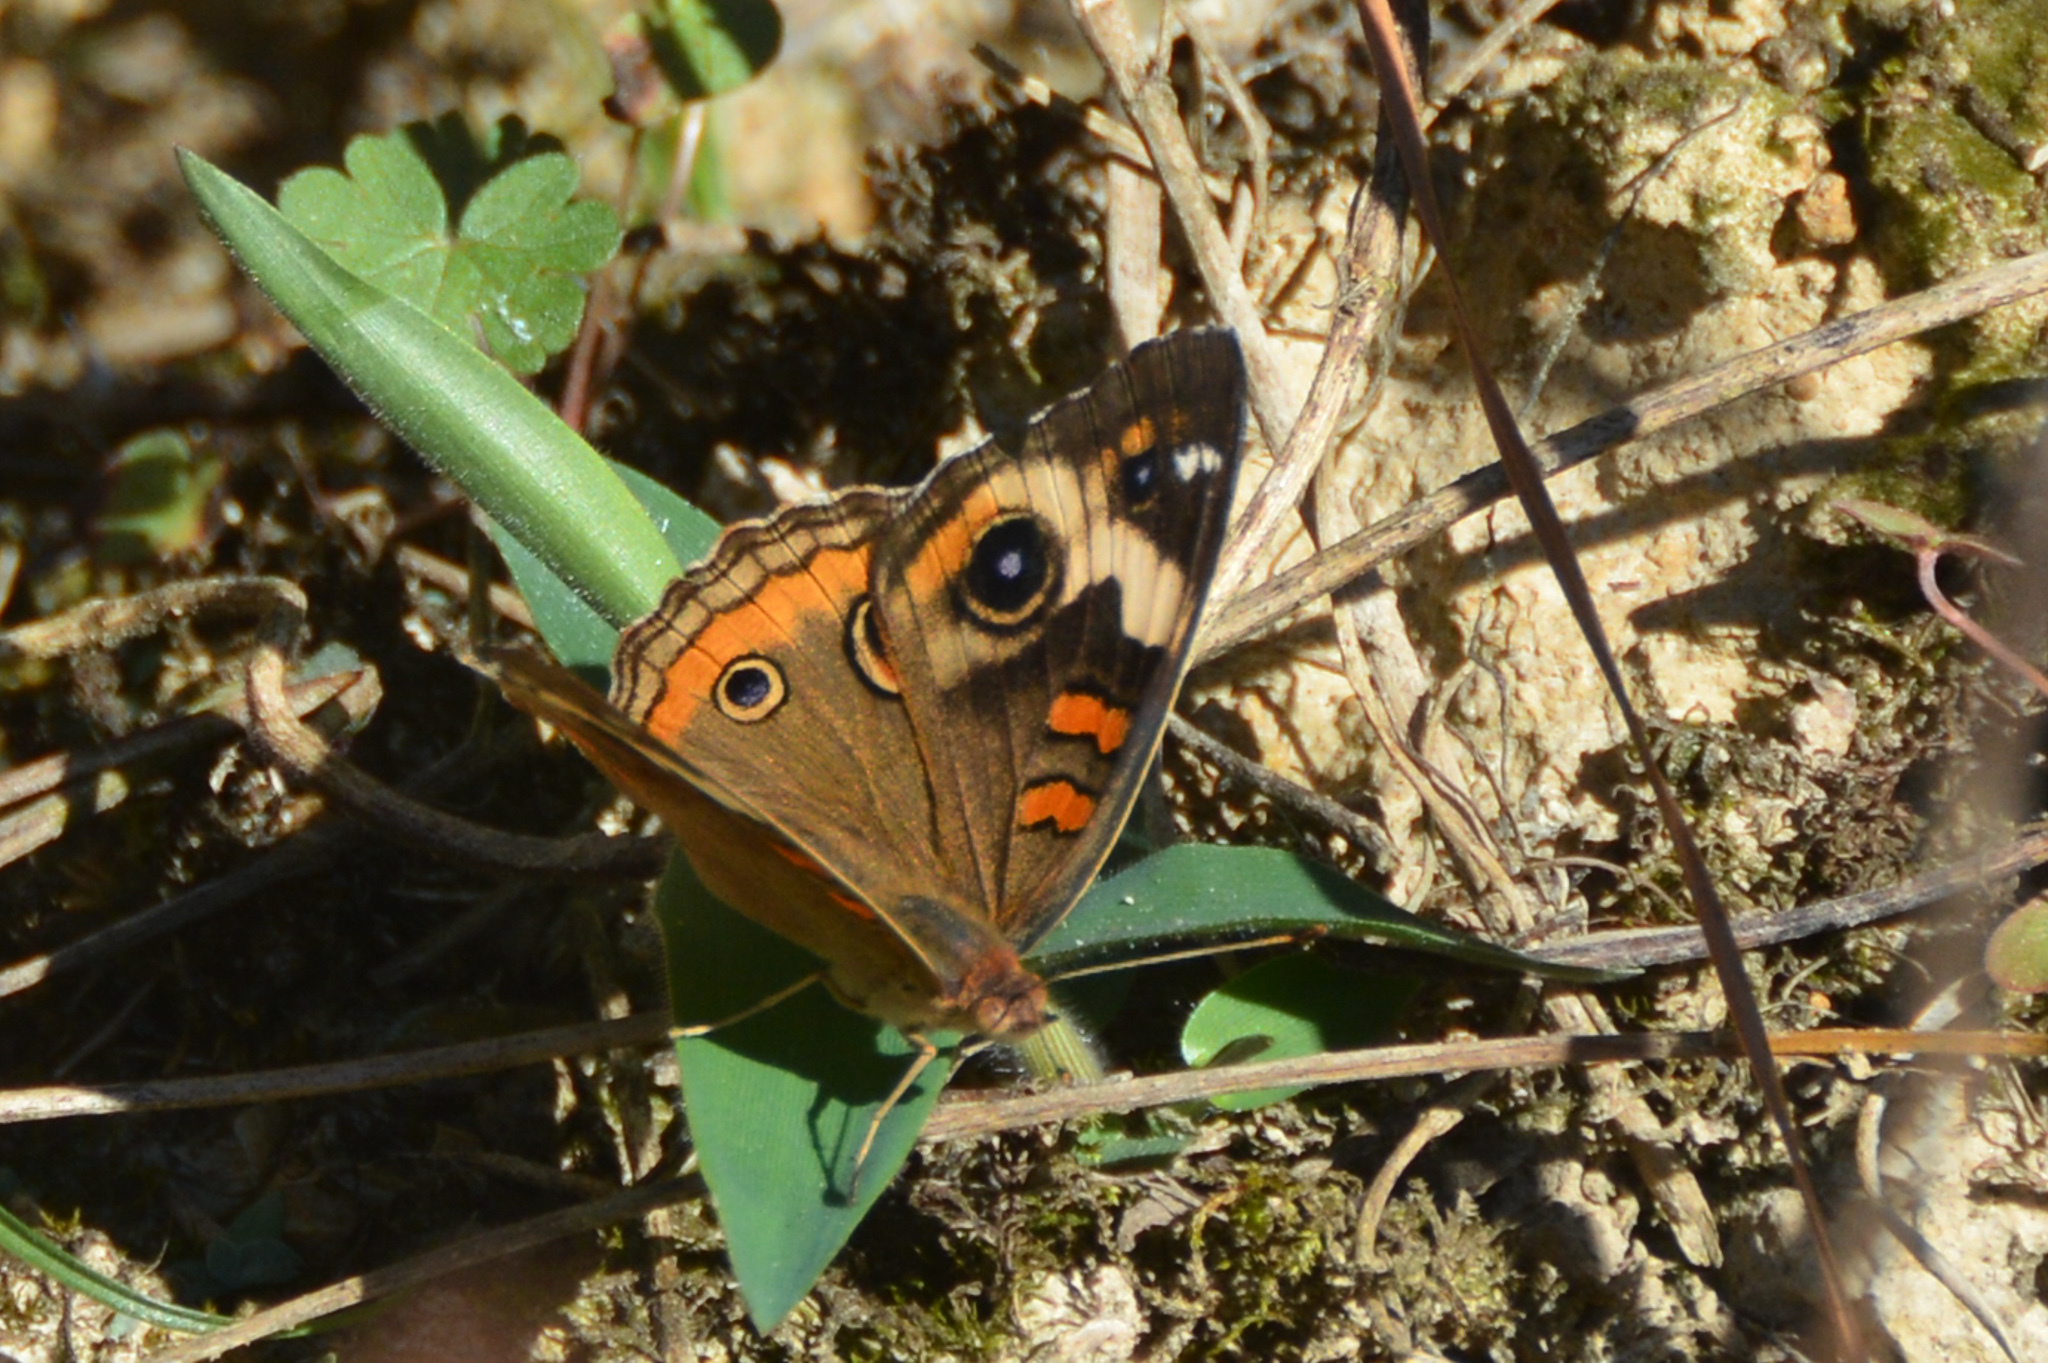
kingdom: Animalia
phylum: Arthropoda
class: Insecta
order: Lepidoptera
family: Nymphalidae
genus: Junonia
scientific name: Junonia coenia
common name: Common buckeye
